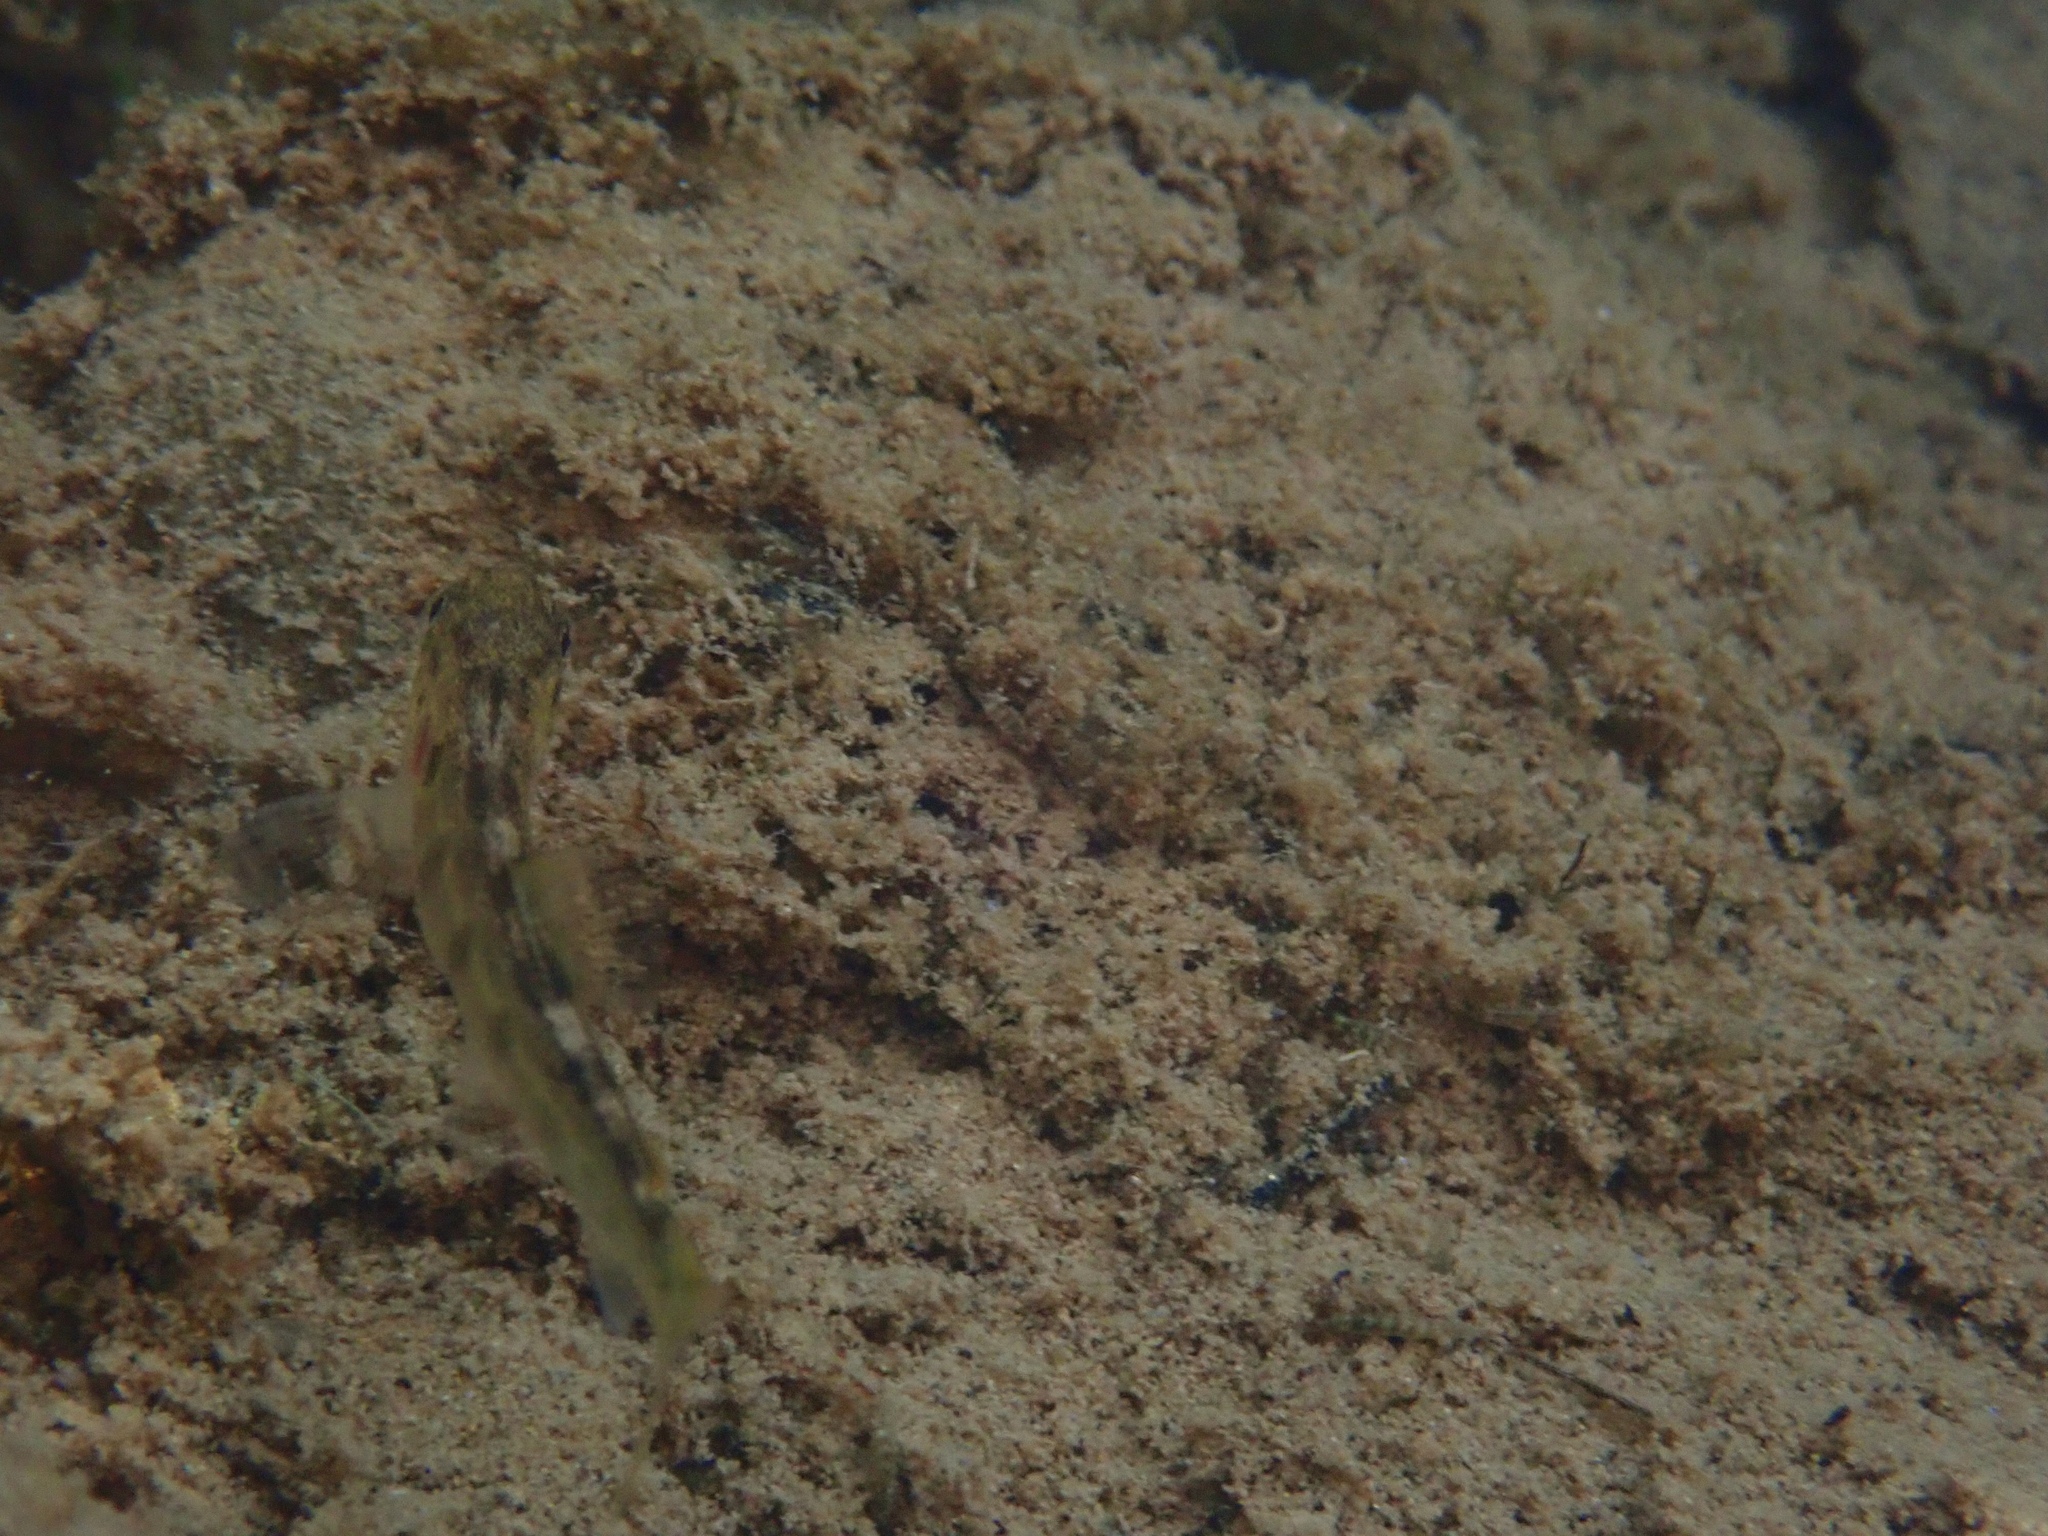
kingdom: Animalia
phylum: Chordata
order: Salmoniformes
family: Salmonidae
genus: Salmo
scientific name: Salmo trutta
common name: Brown trout
